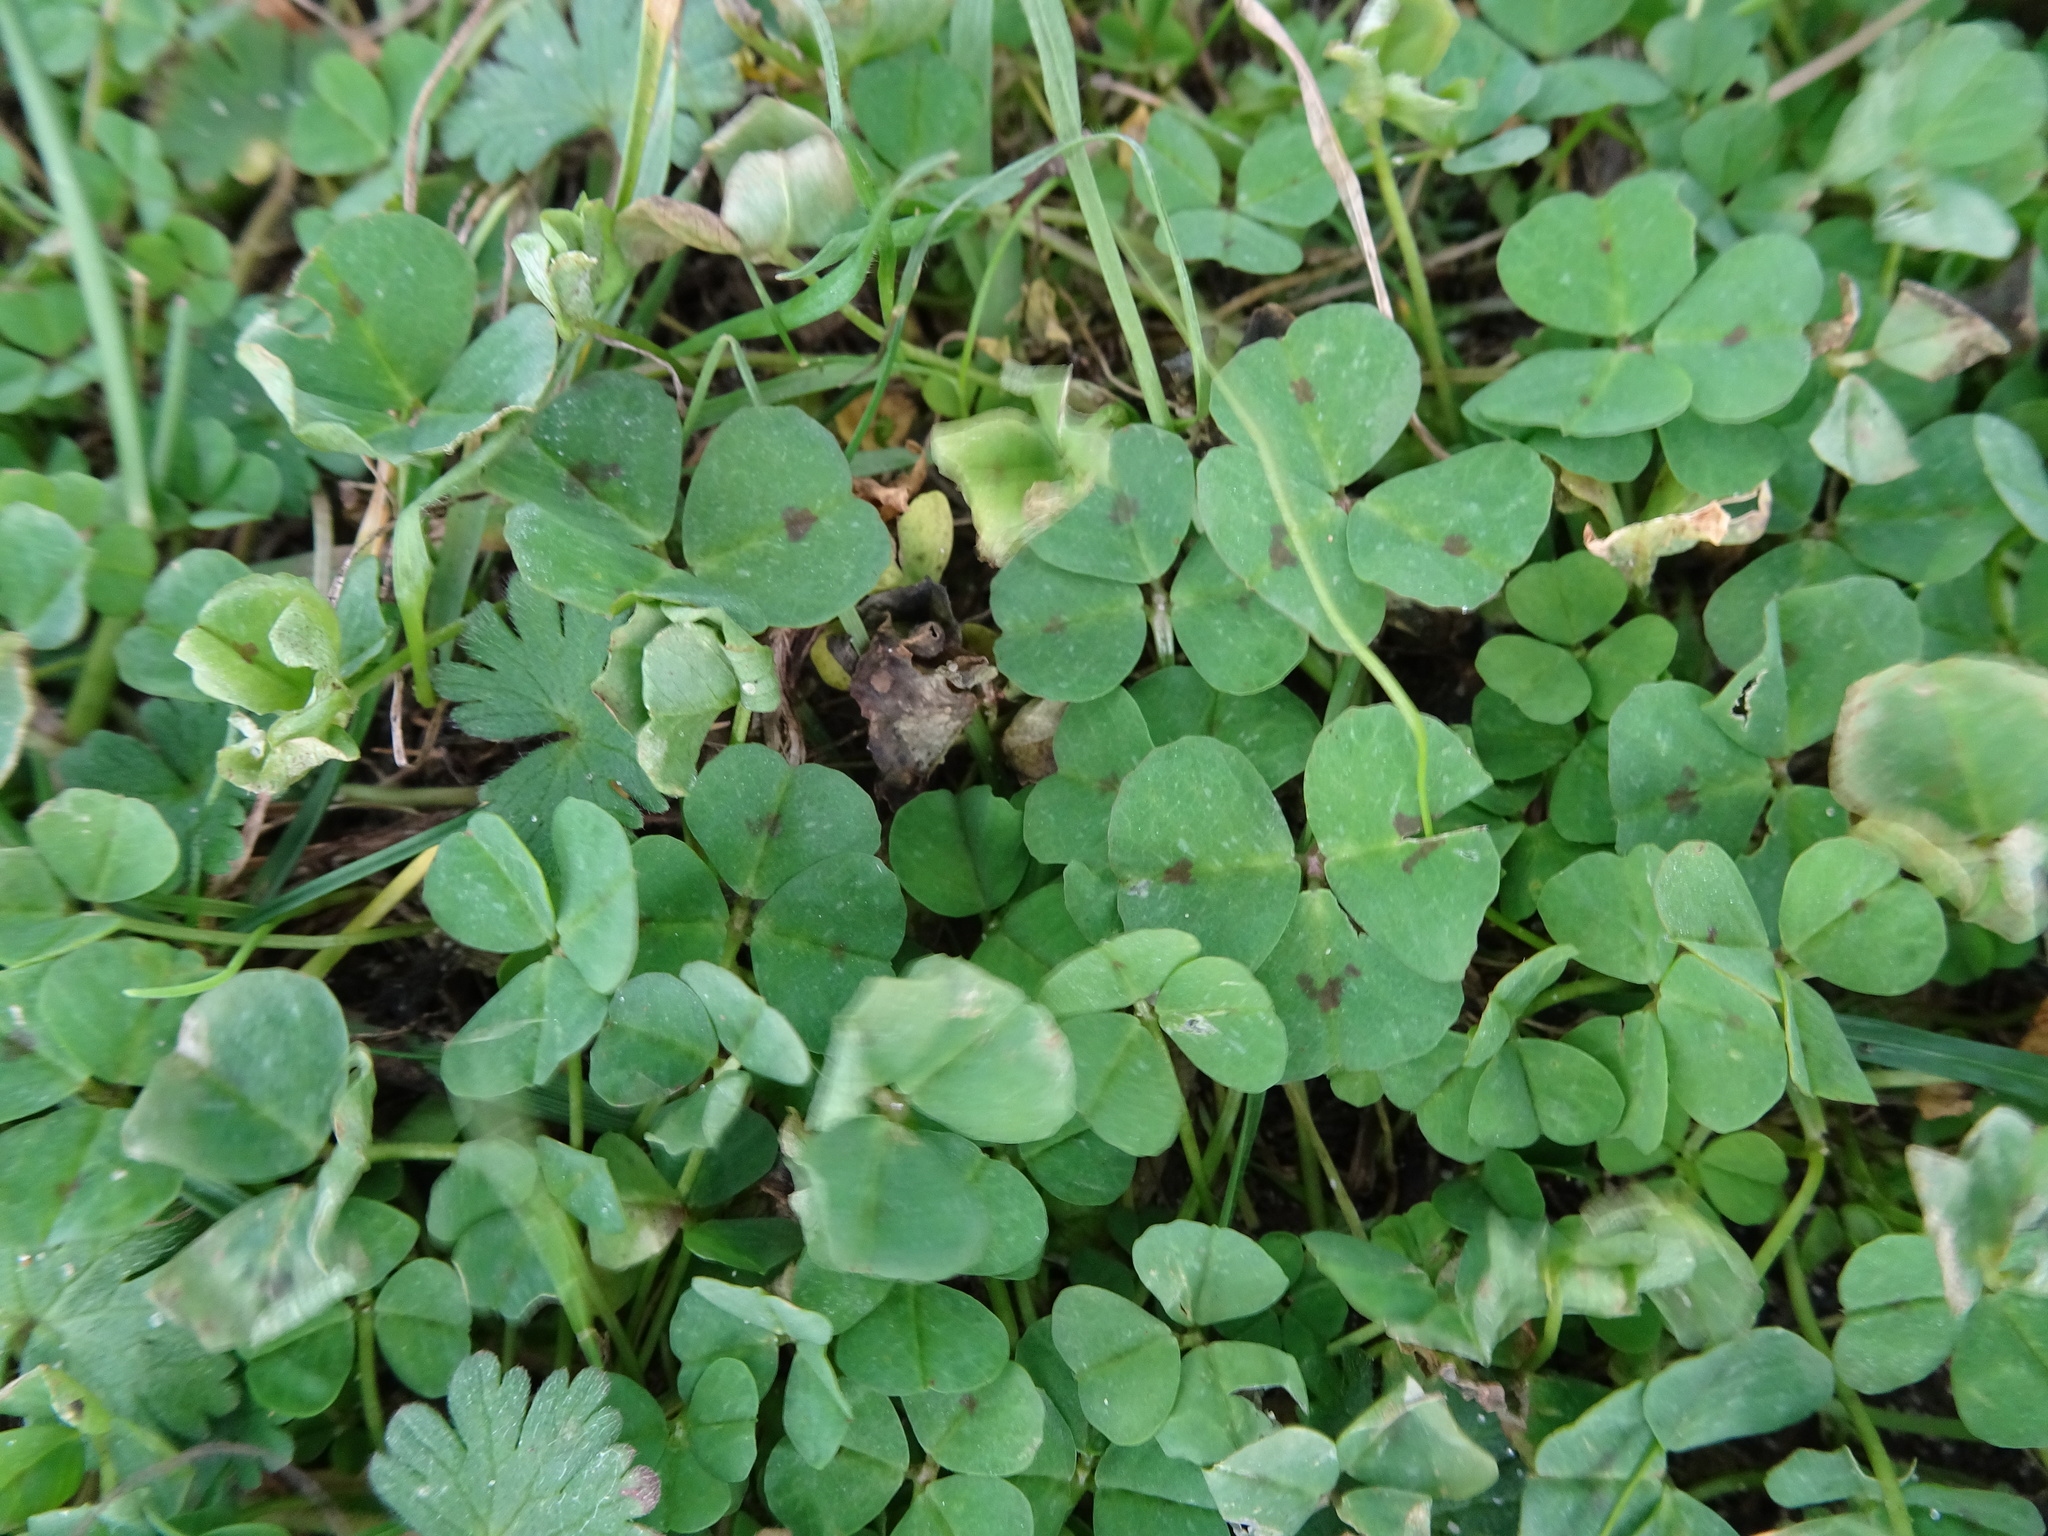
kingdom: Plantae
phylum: Tracheophyta
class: Magnoliopsida
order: Fabales
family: Fabaceae
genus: Medicago
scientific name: Medicago arabica
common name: Spotted medick
